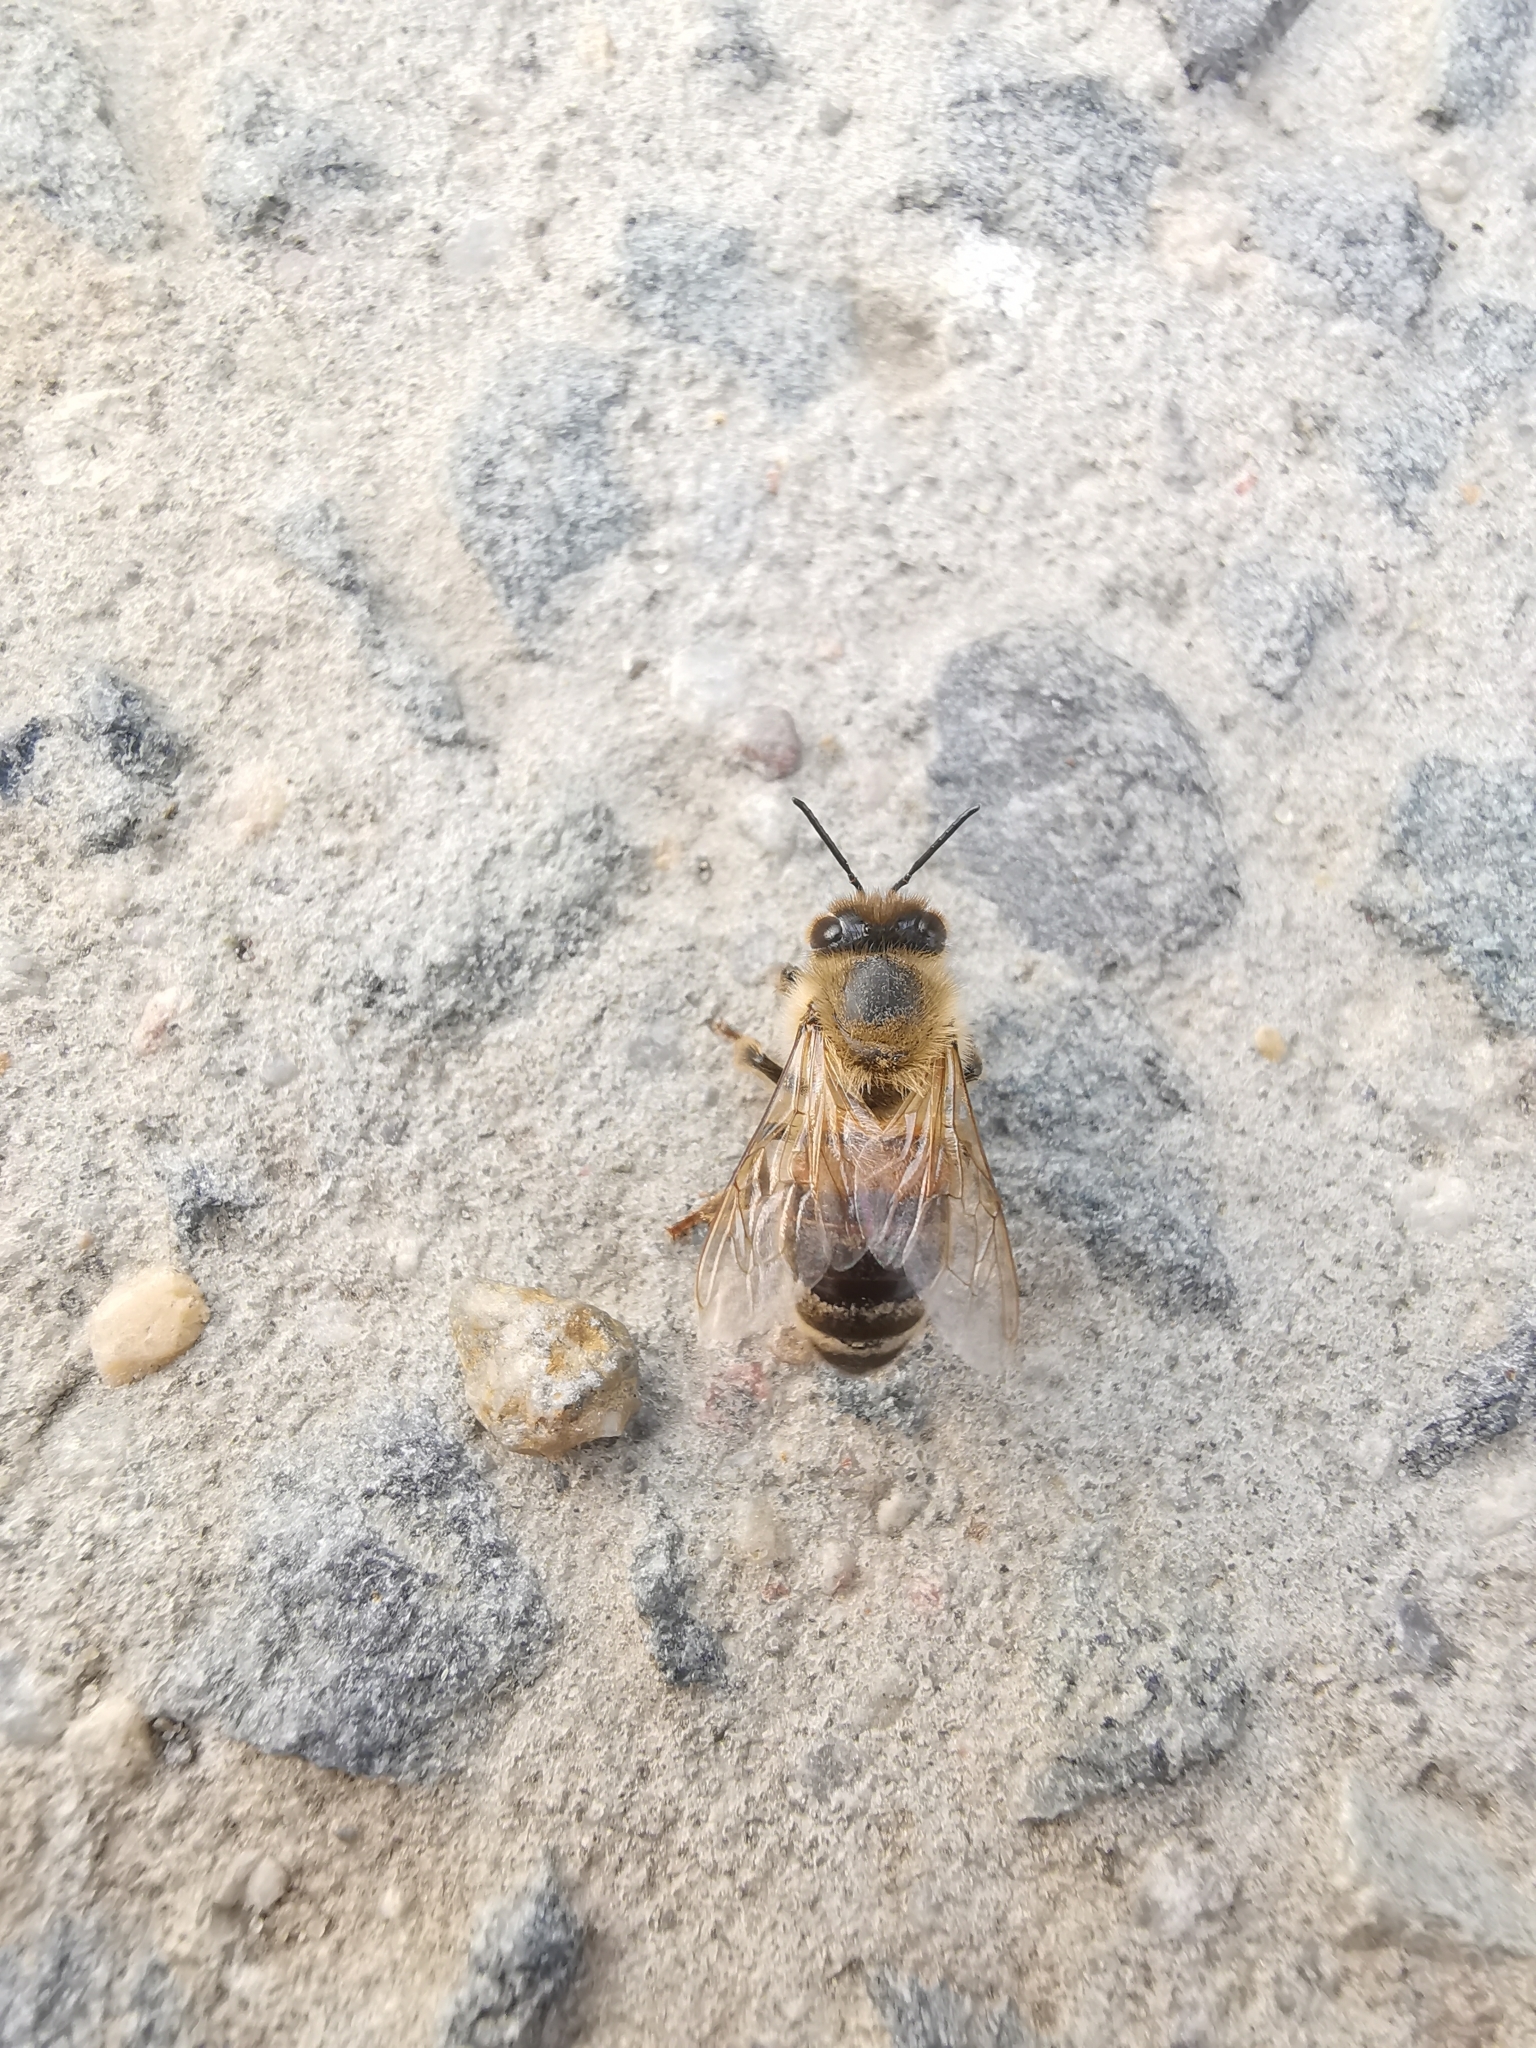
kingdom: Animalia
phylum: Arthropoda
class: Insecta
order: Hymenoptera
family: Apidae
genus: Apis
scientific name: Apis mellifera
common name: Honey bee
